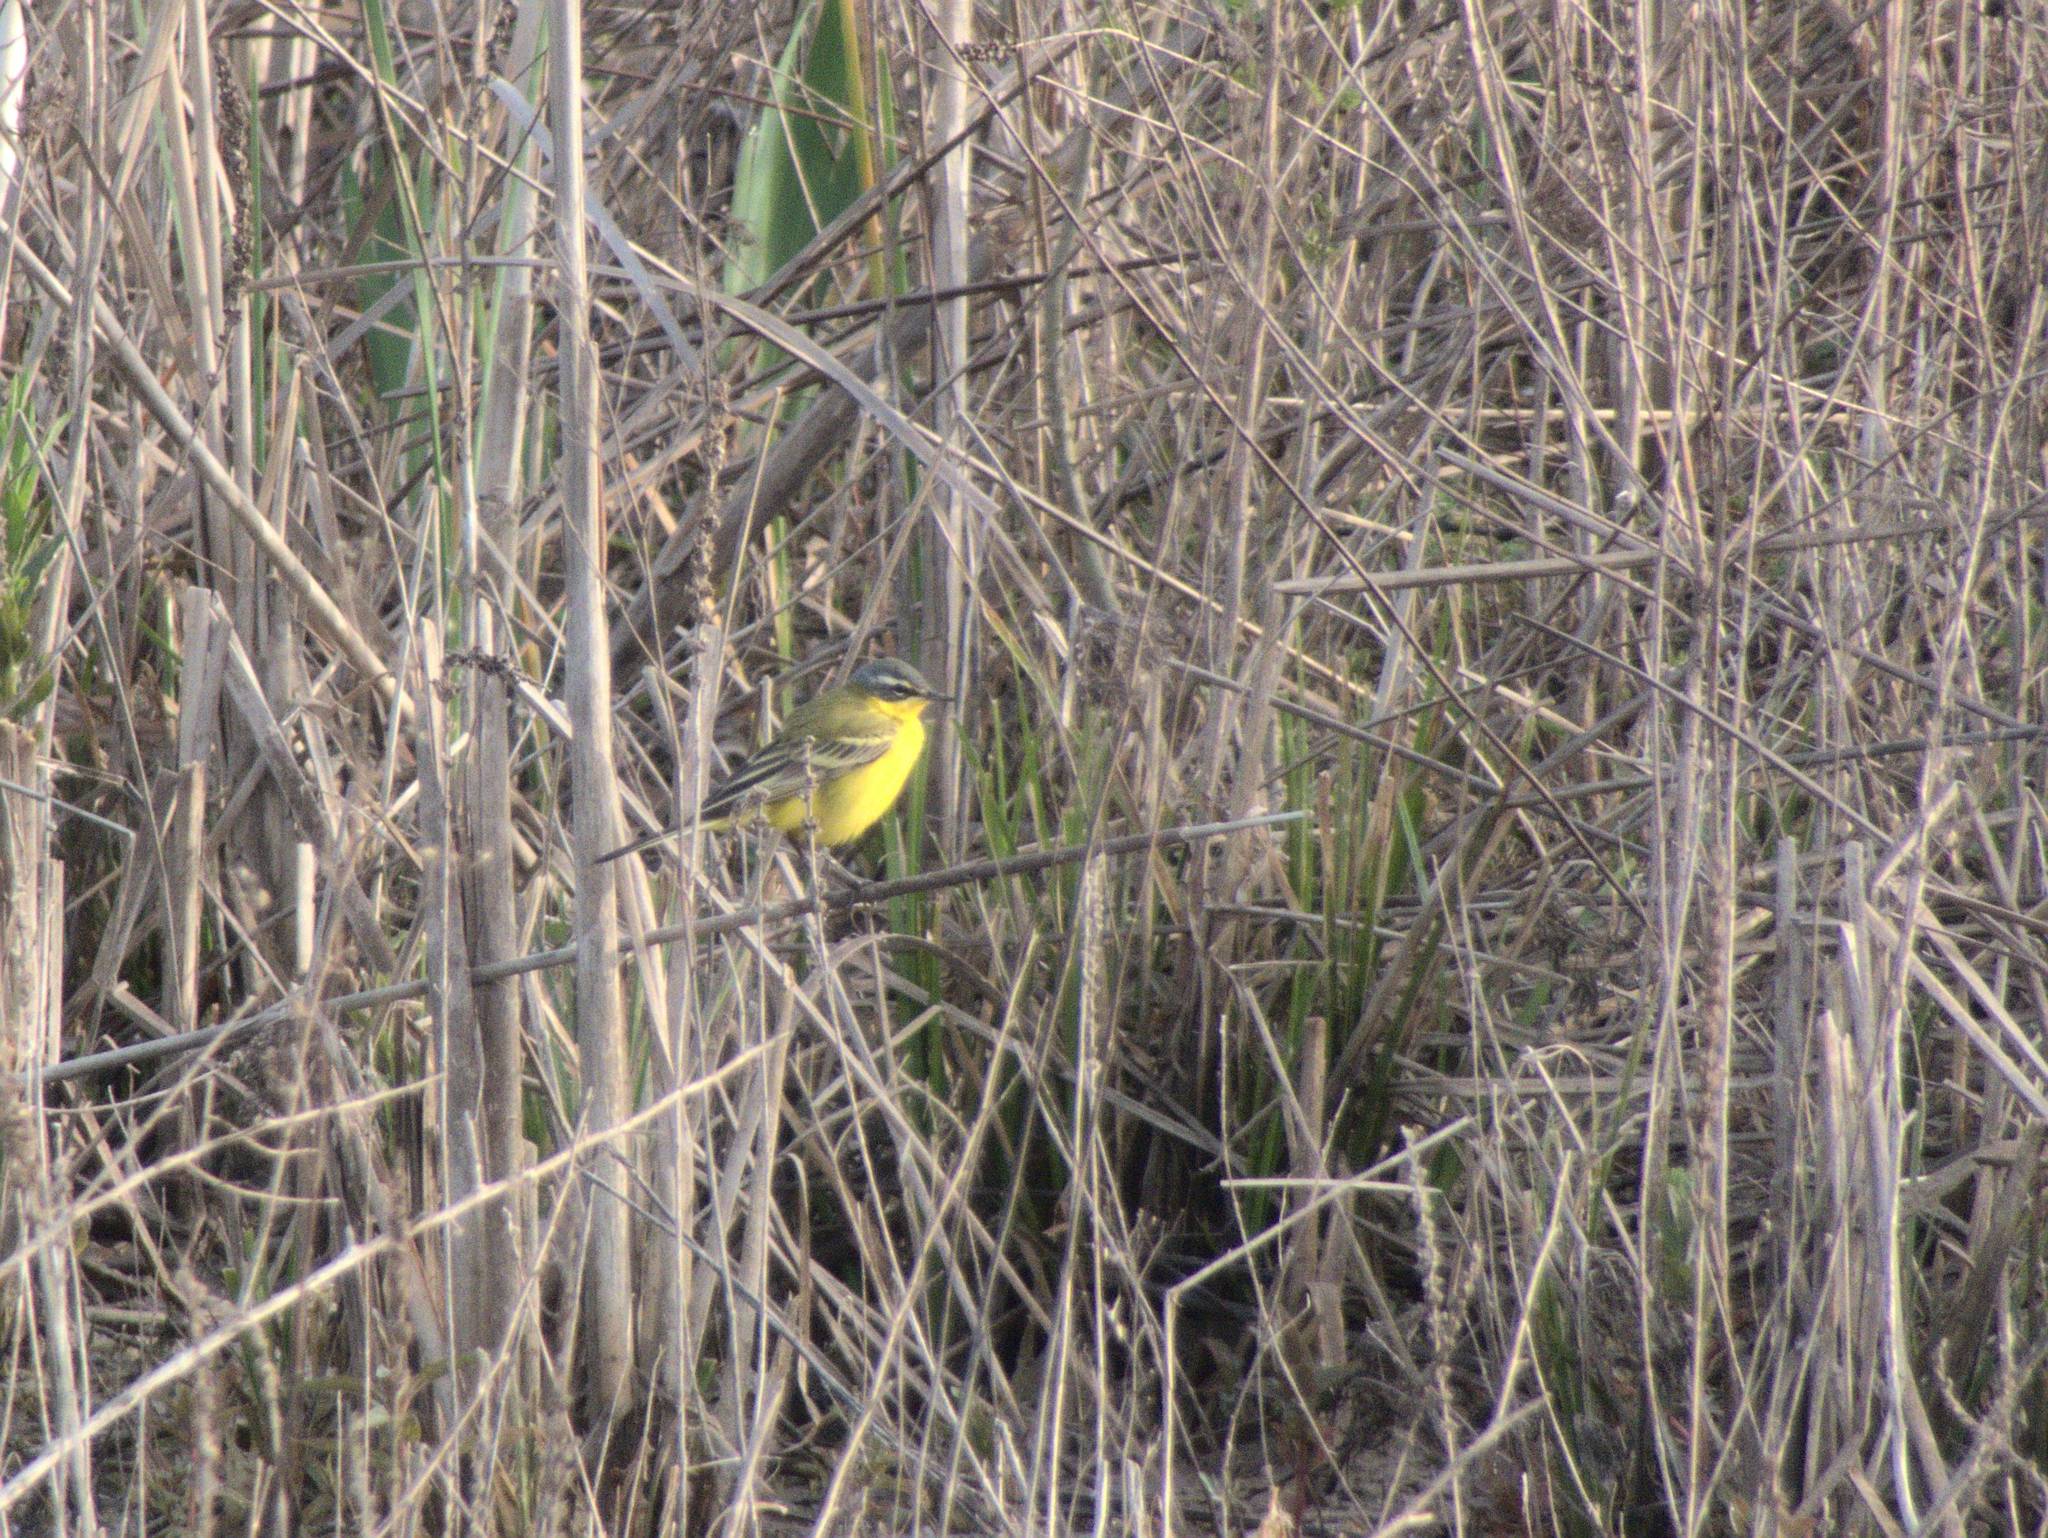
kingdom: Animalia
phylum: Chordata
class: Aves
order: Passeriformes
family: Motacillidae
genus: Motacilla
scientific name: Motacilla flava
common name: Western yellow wagtail
